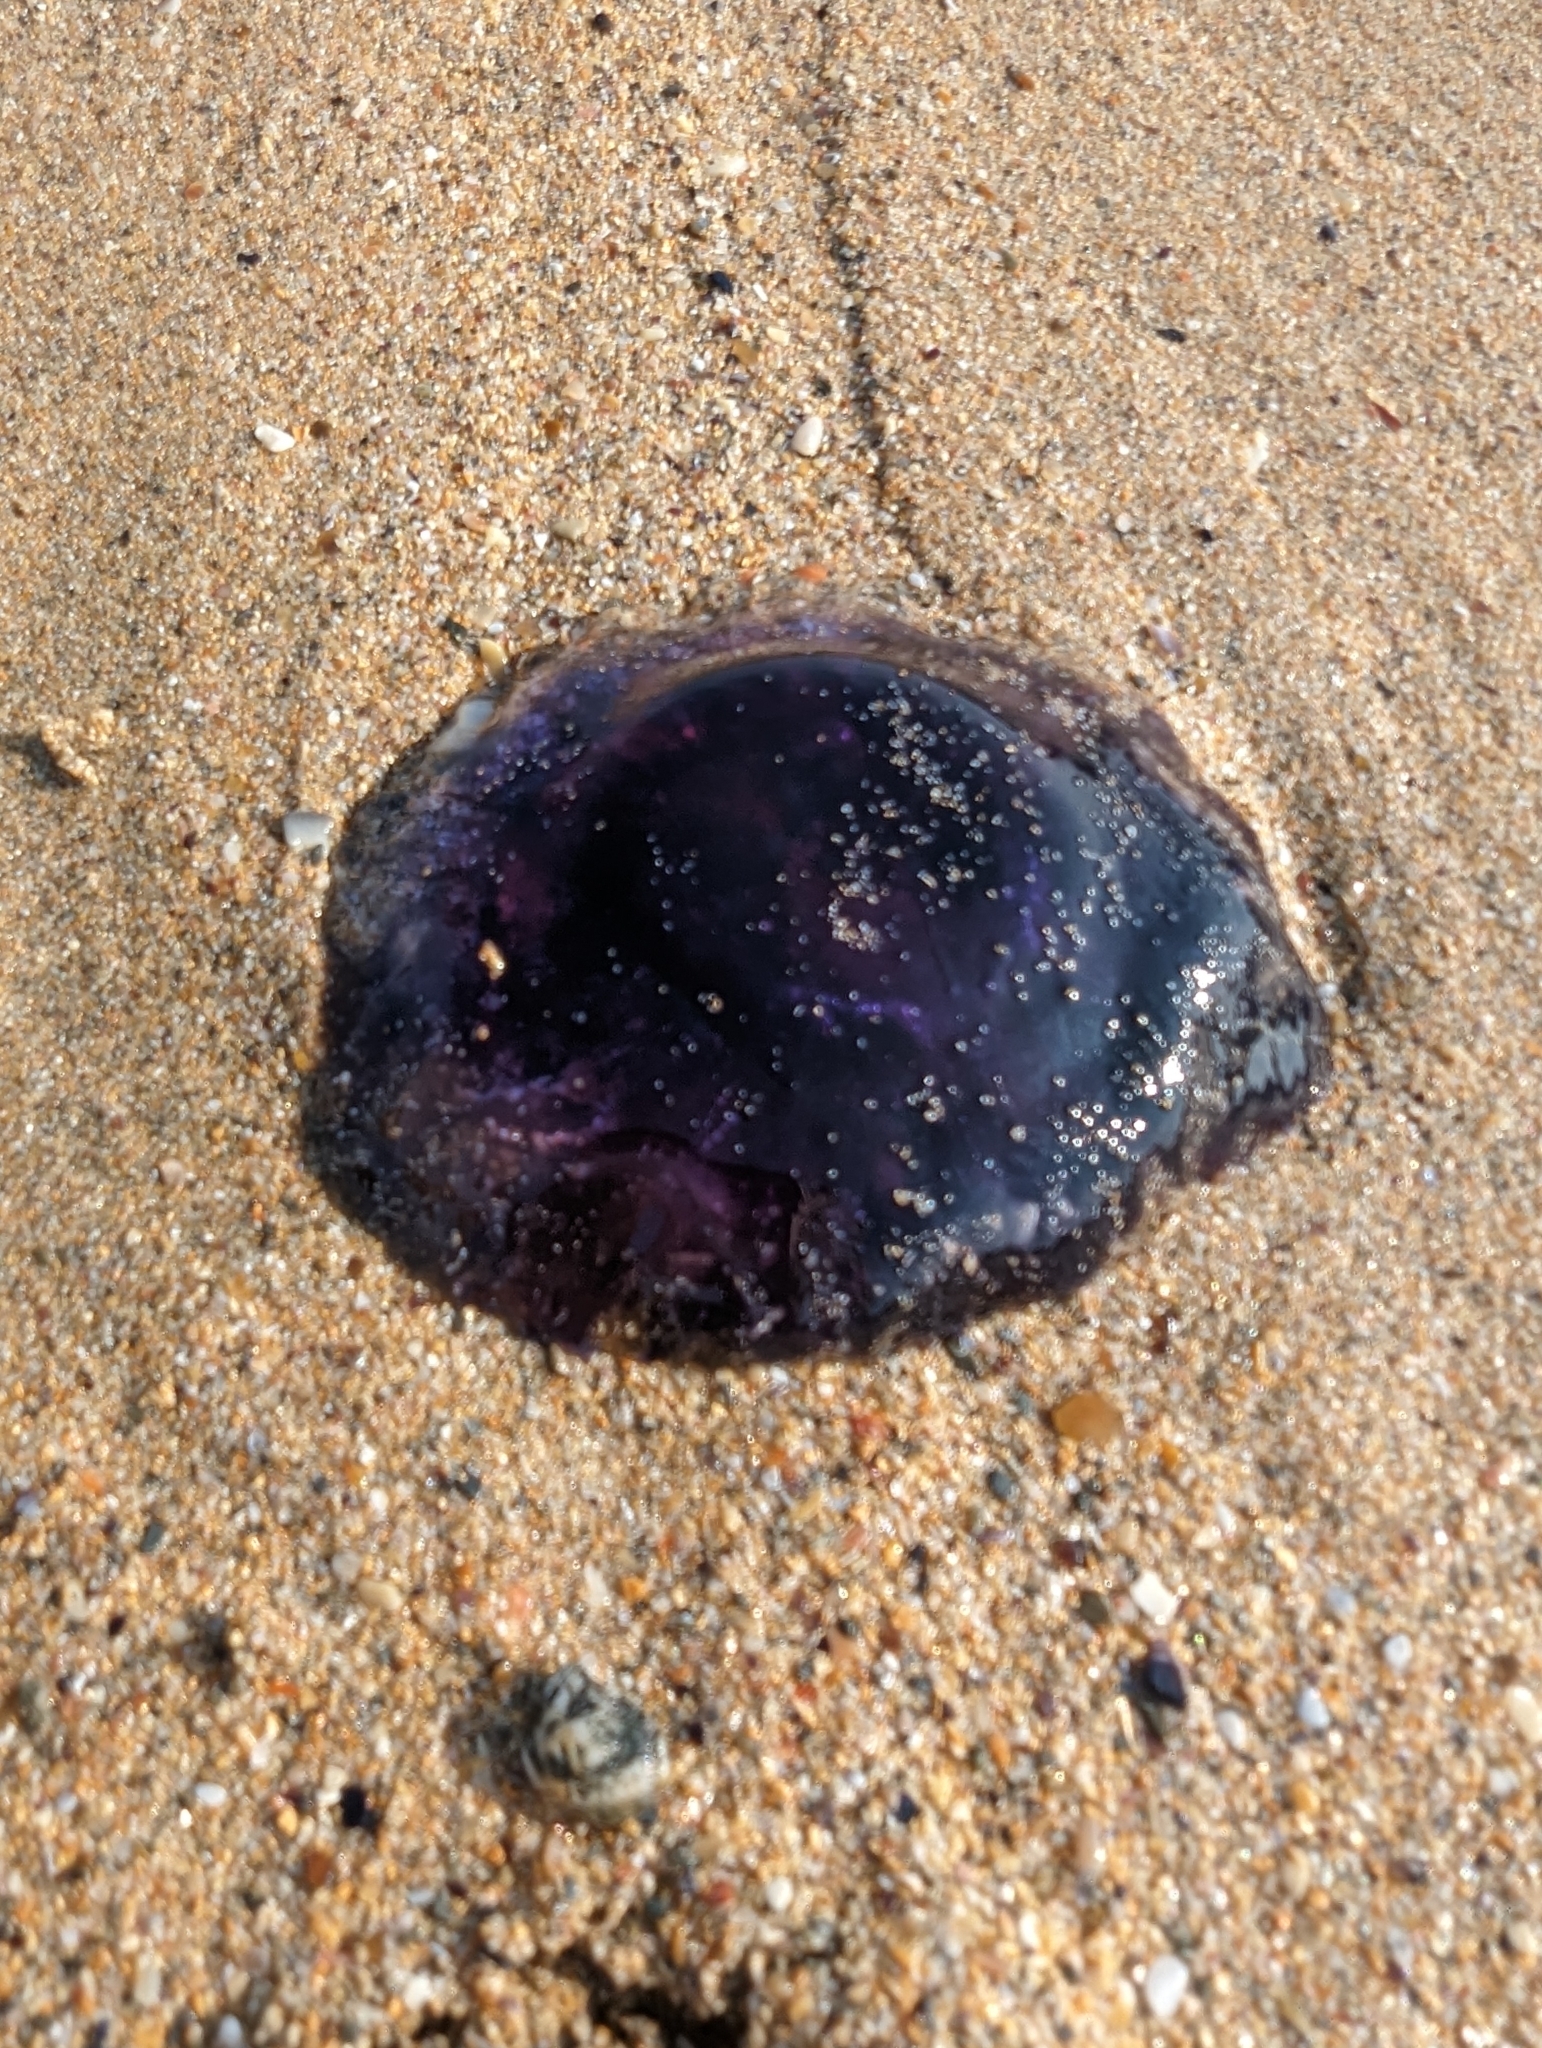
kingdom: Animalia
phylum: Cnidaria
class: Scyphozoa
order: Semaeostomeae
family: Cyaneidae
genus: Cyanea
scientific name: Cyanea lamarckii
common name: Blue jellyfish
